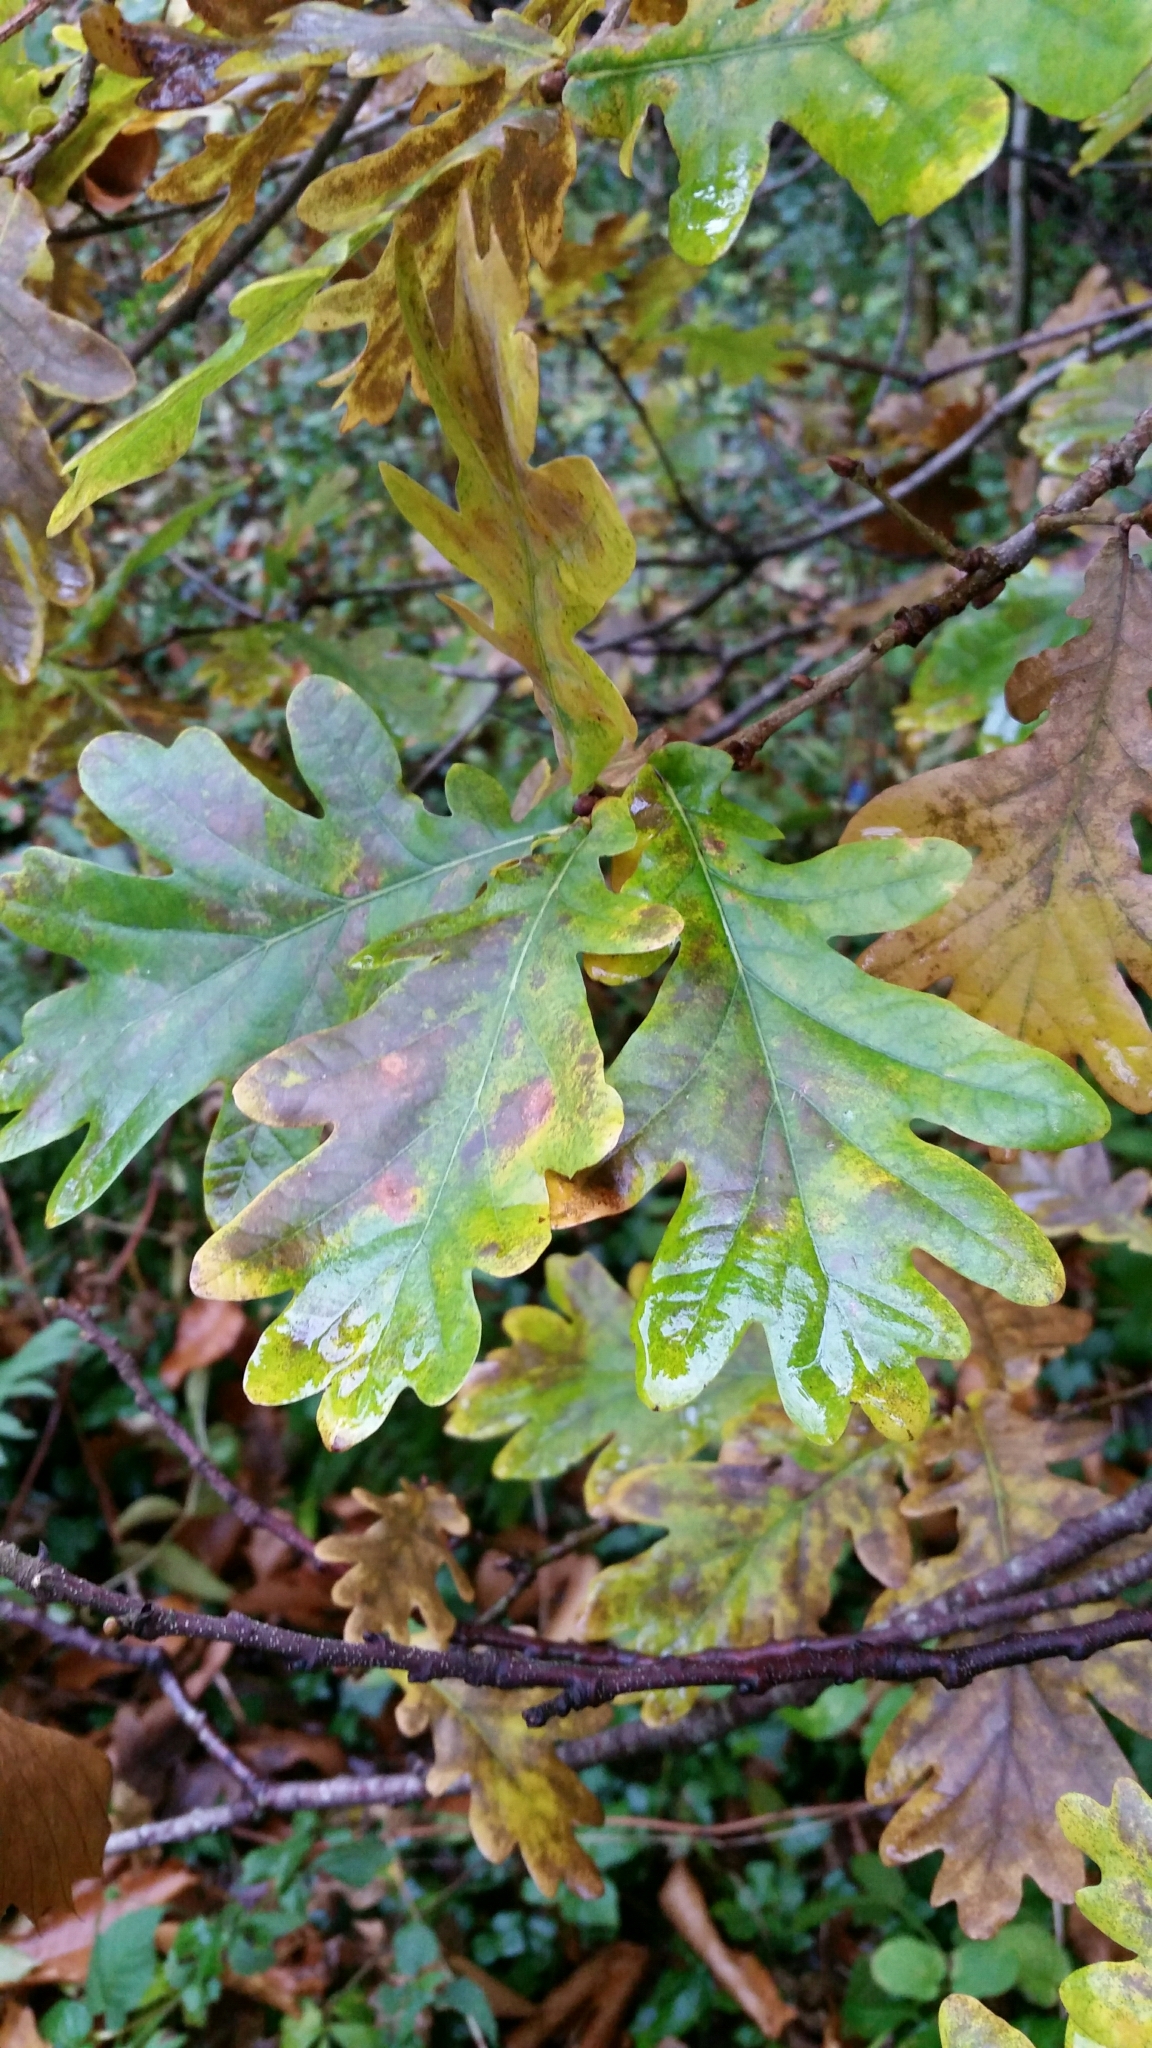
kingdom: Plantae
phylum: Tracheophyta
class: Magnoliopsida
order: Fagales
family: Fagaceae
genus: Quercus
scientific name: Quercus robur
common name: Pedunculate oak
